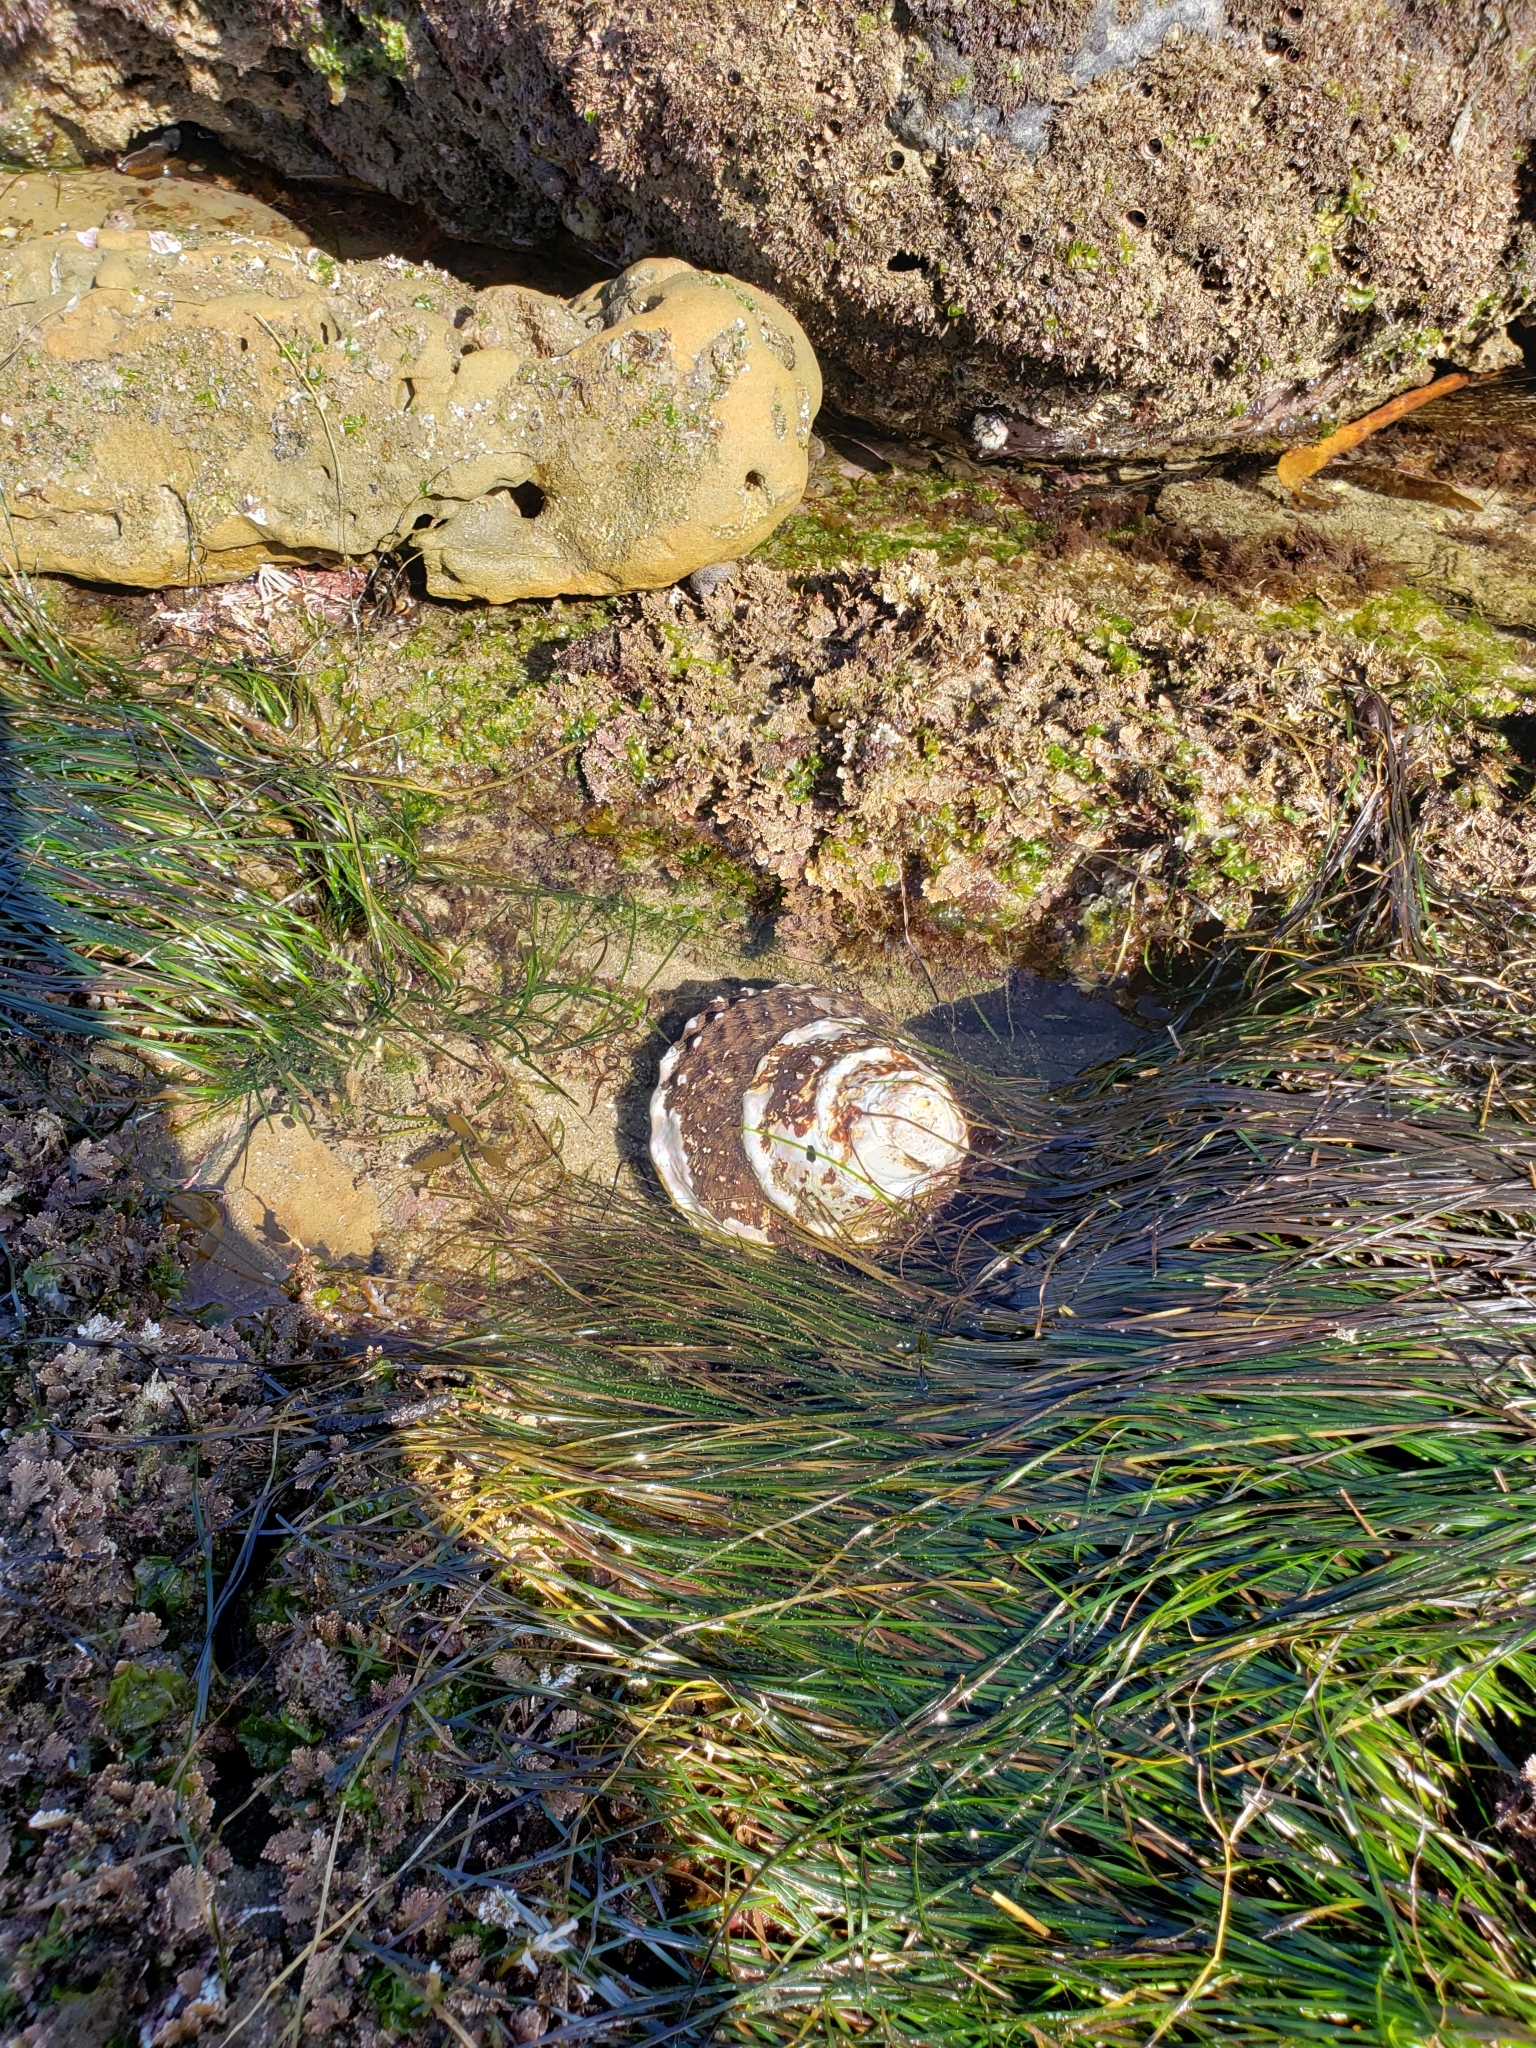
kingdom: Animalia
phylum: Mollusca
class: Gastropoda
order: Trochida
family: Turbinidae
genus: Megastraea
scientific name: Megastraea undosa
